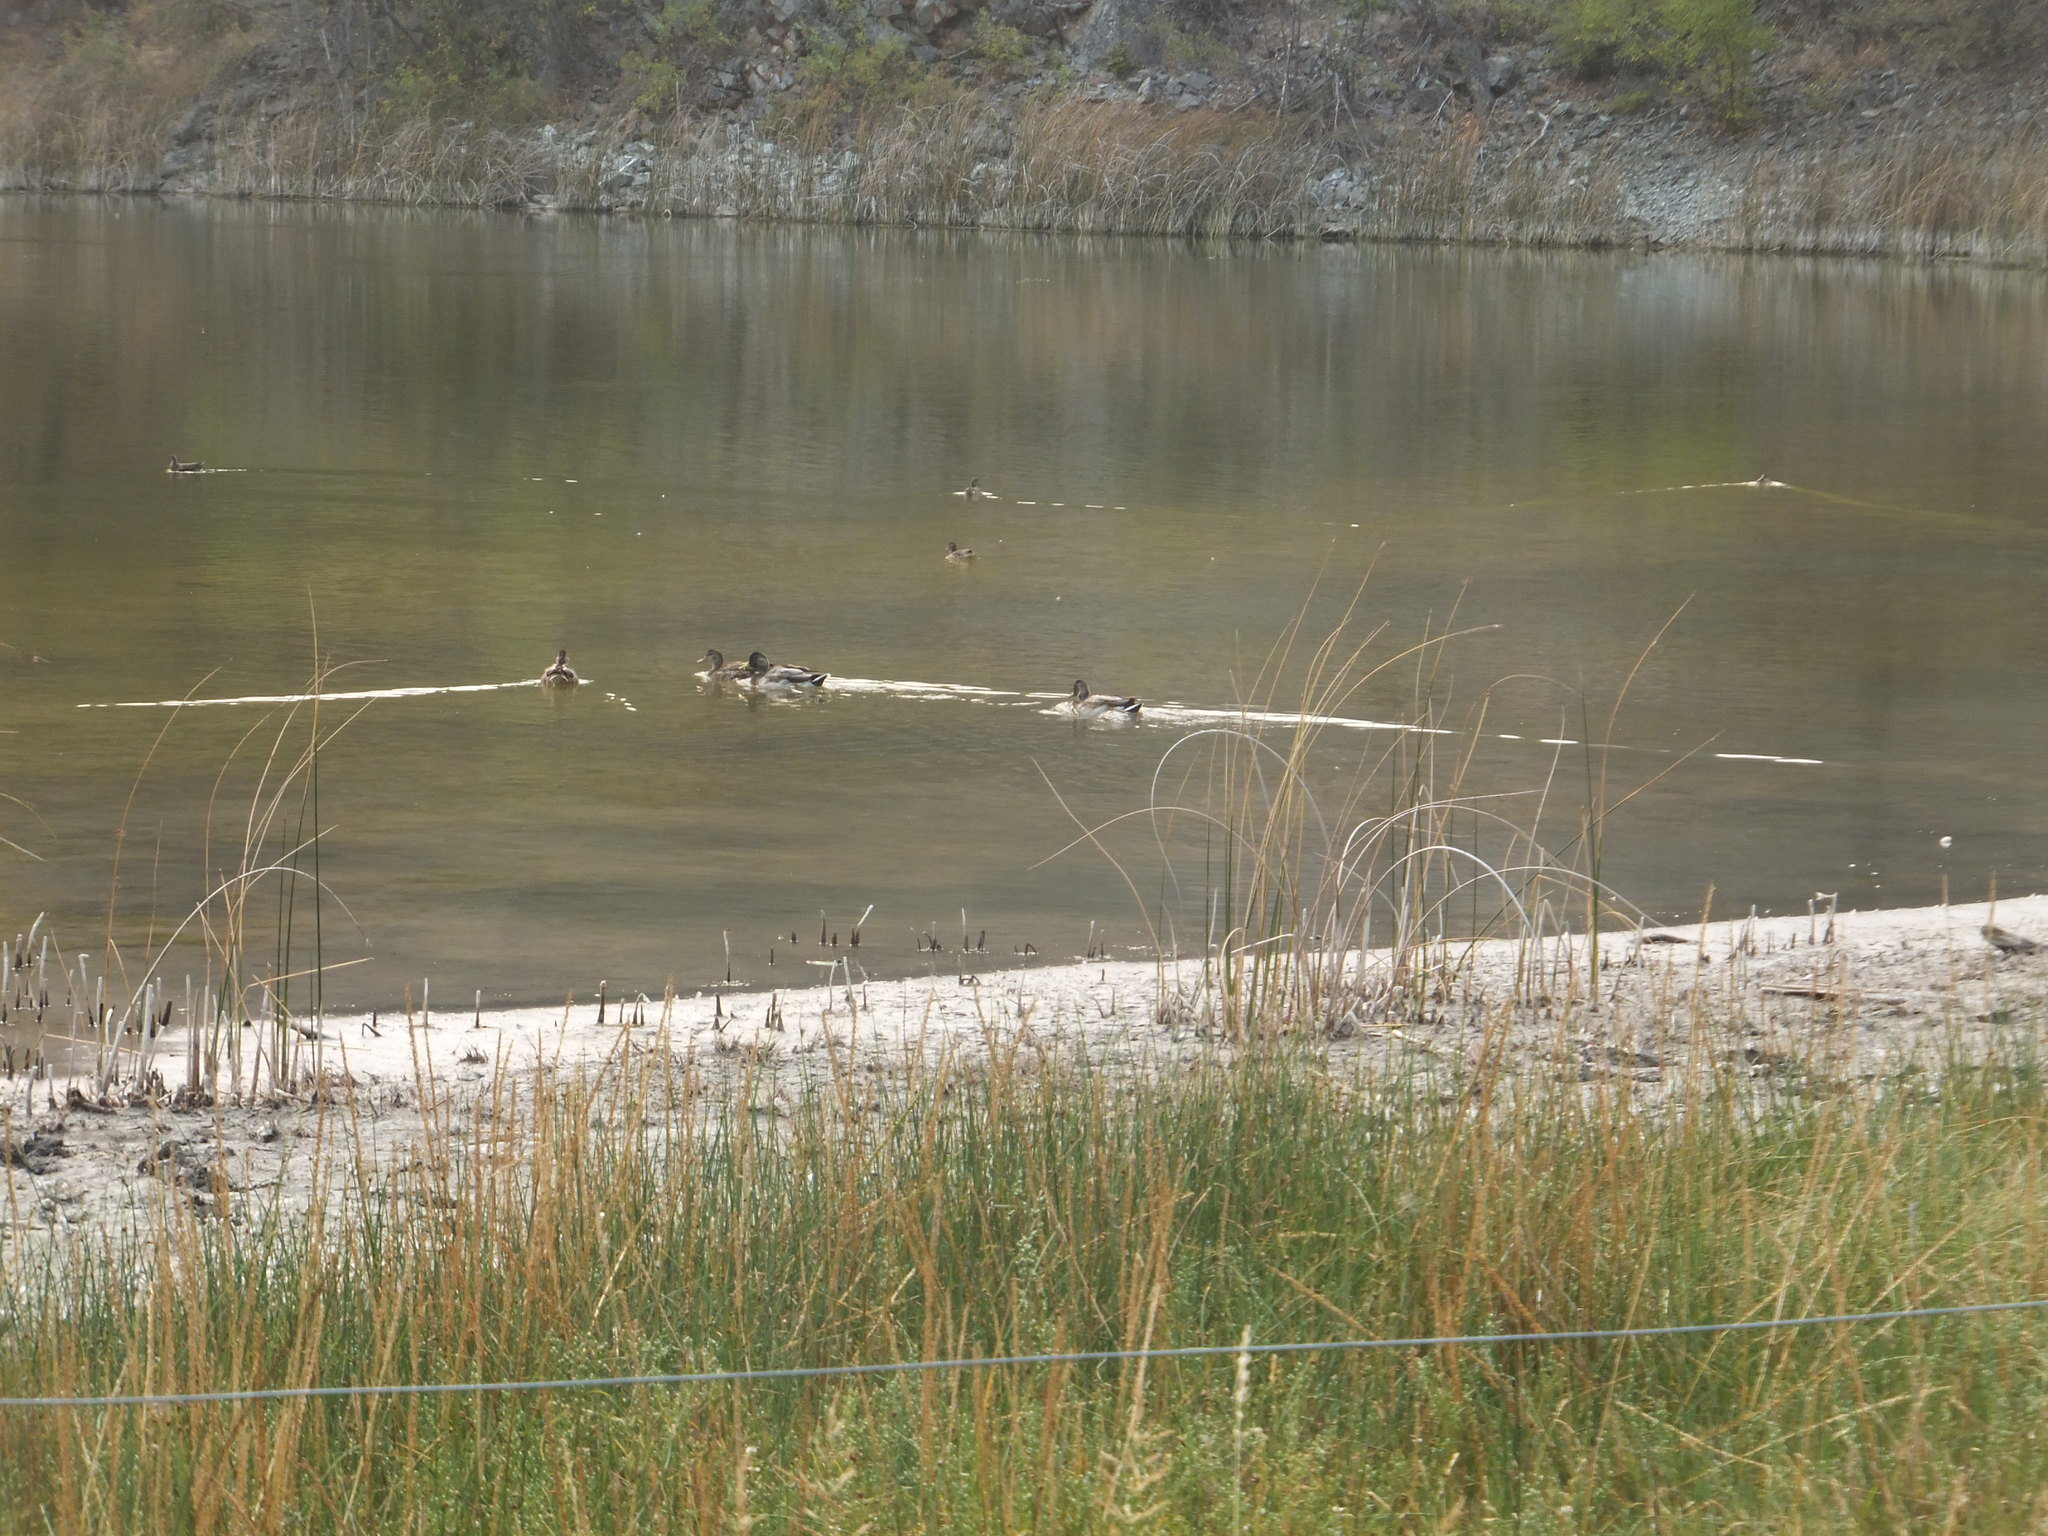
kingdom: Animalia
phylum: Chordata
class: Aves
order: Anseriformes
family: Anatidae
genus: Anas
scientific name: Anas platyrhynchos
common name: Mallard
